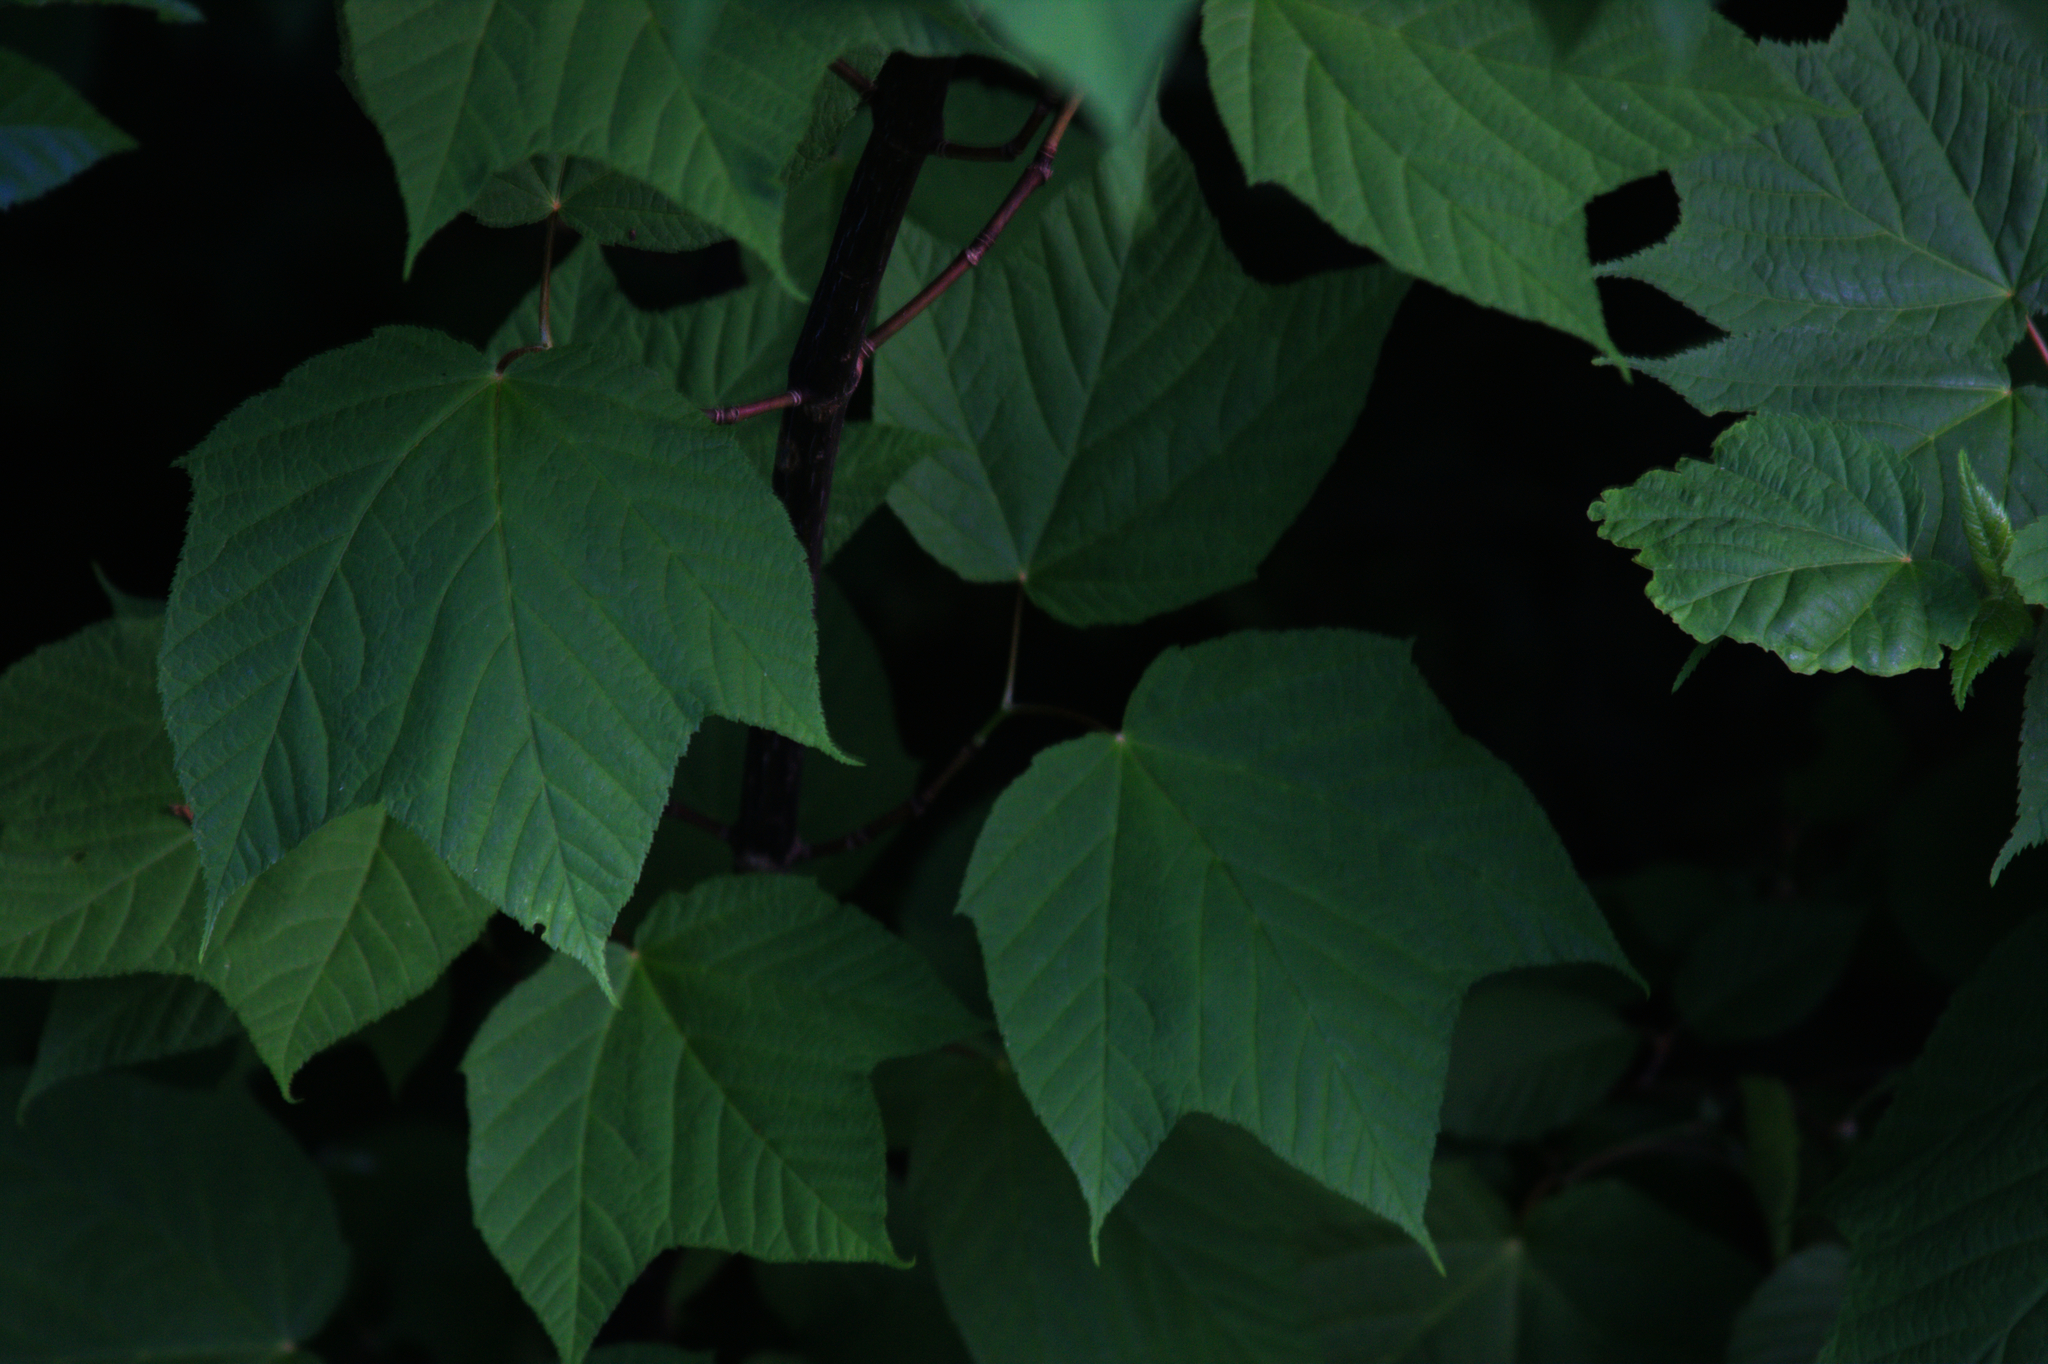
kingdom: Plantae
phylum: Tracheophyta
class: Magnoliopsida
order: Sapindales
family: Sapindaceae
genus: Acer
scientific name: Acer pensylvanicum
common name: Moosewood
